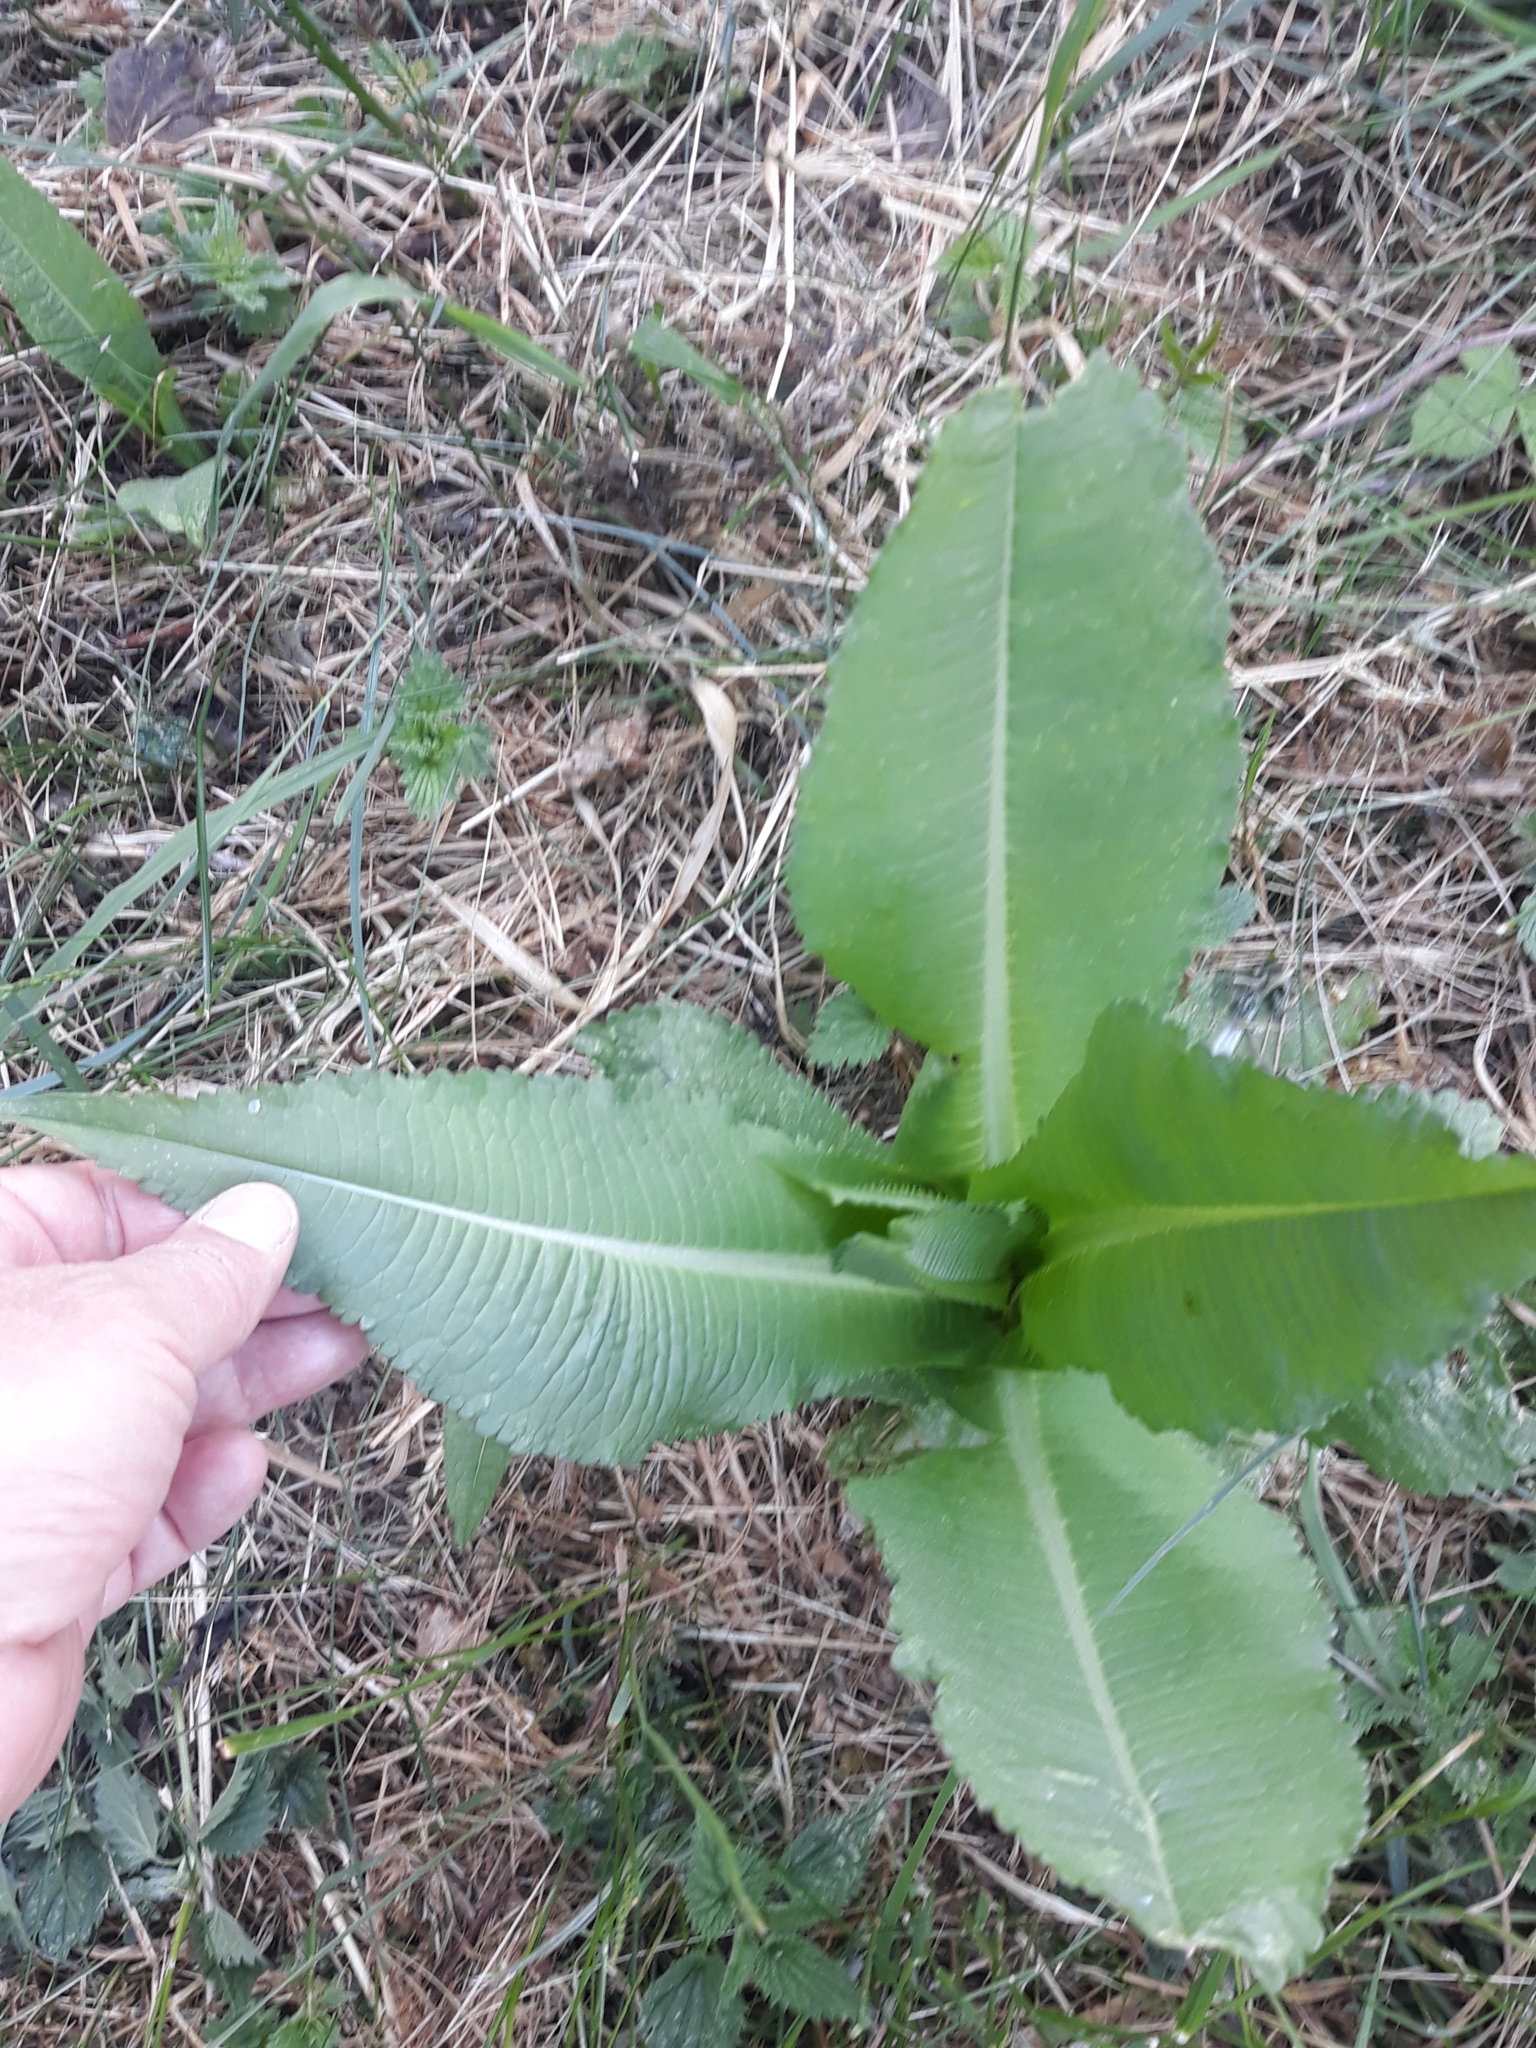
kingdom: Plantae
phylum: Tracheophyta
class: Magnoliopsida
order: Dipsacales
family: Caprifoliaceae
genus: Dipsacus
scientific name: Dipsacus fullonum
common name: Teasel
